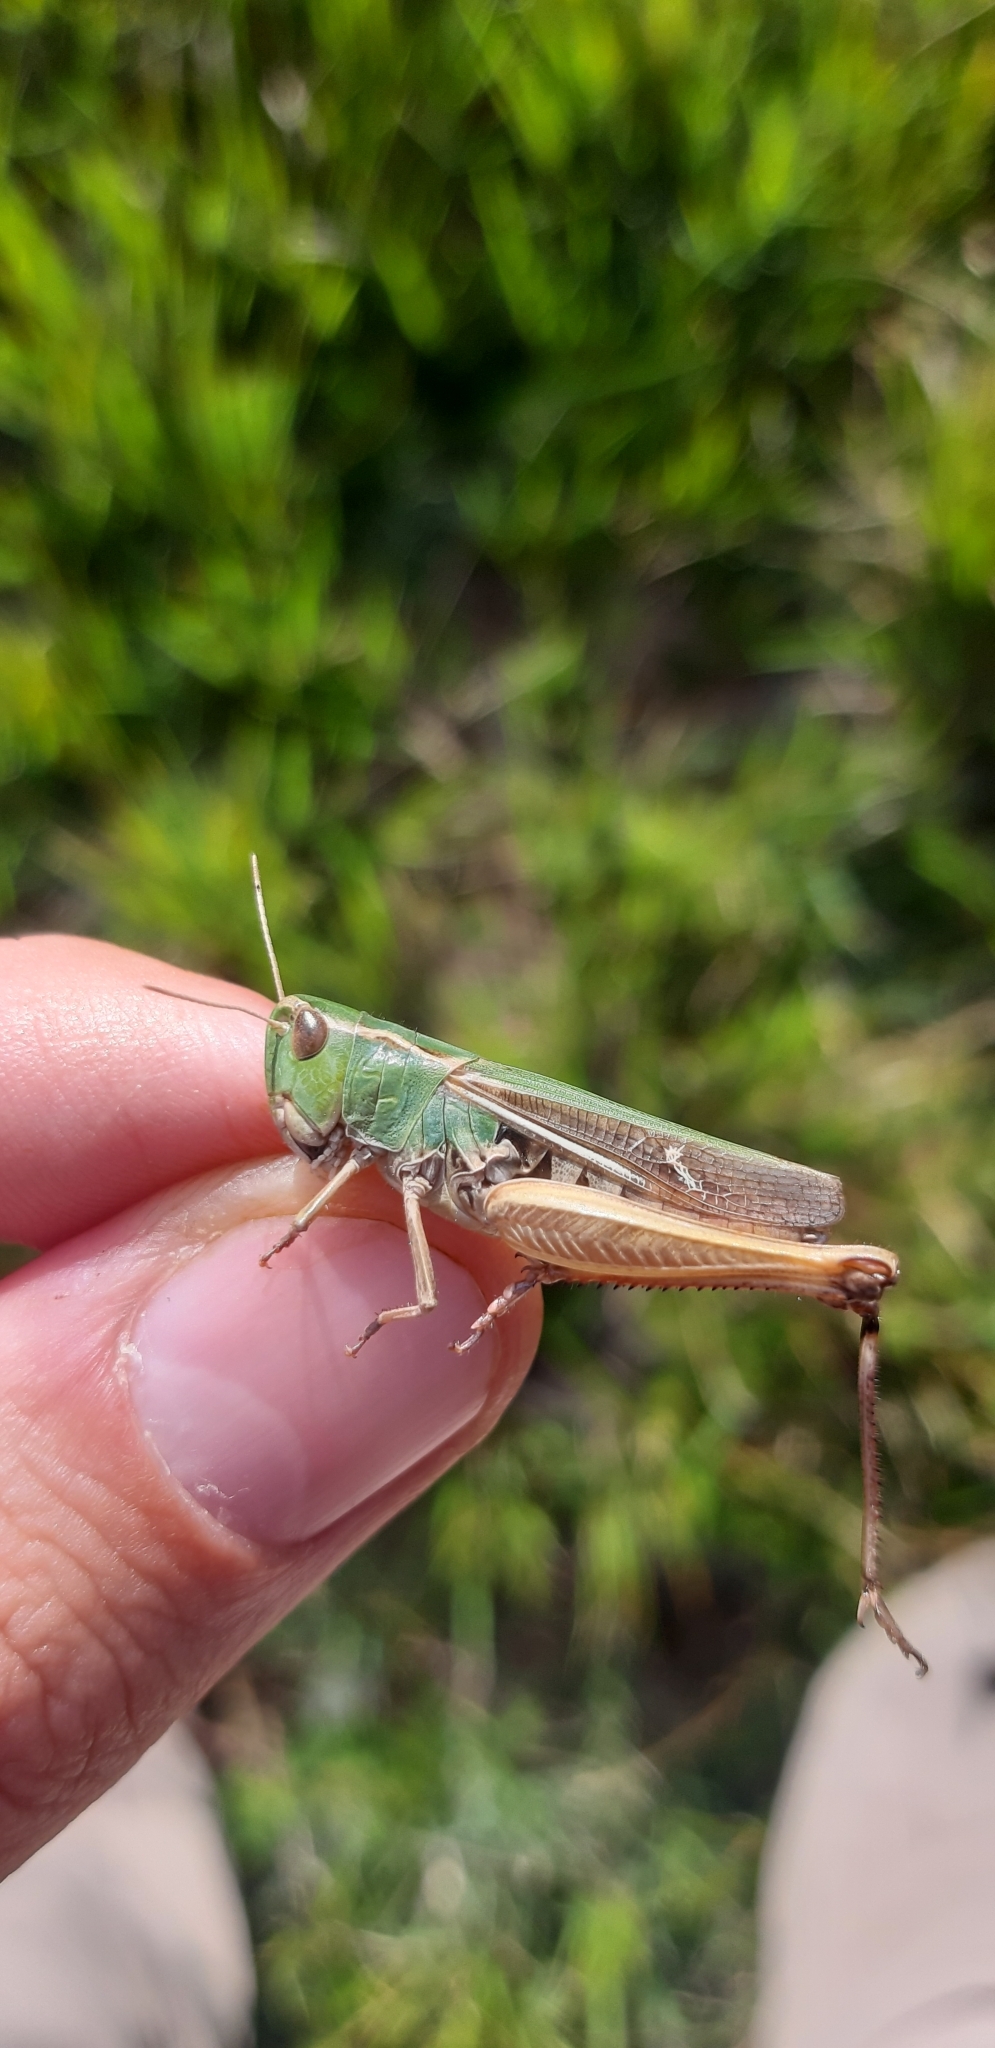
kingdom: Animalia
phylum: Arthropoda
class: Insecta
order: Orthoptera
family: Acrididae
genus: Stenobothrus
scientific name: Stenobothrus lineatus
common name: Stripe-winged grasshopper
